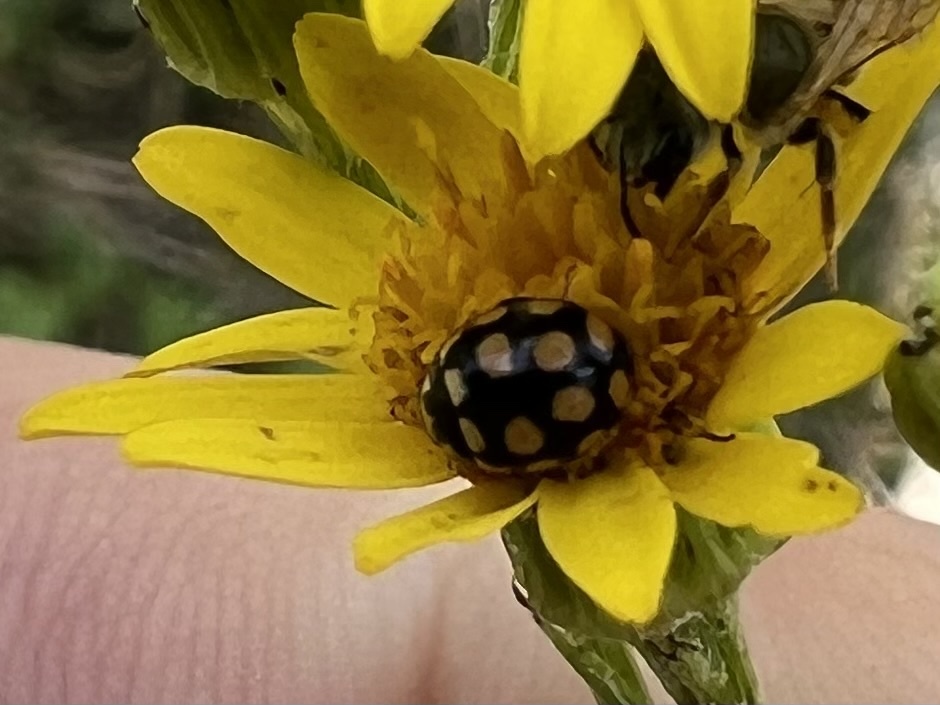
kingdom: Animalia
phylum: Arthropoda
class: Insecta
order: Coleoptera
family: Coccinellidae
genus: Coccinula
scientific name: Coccinula quatuordecimpustulata
